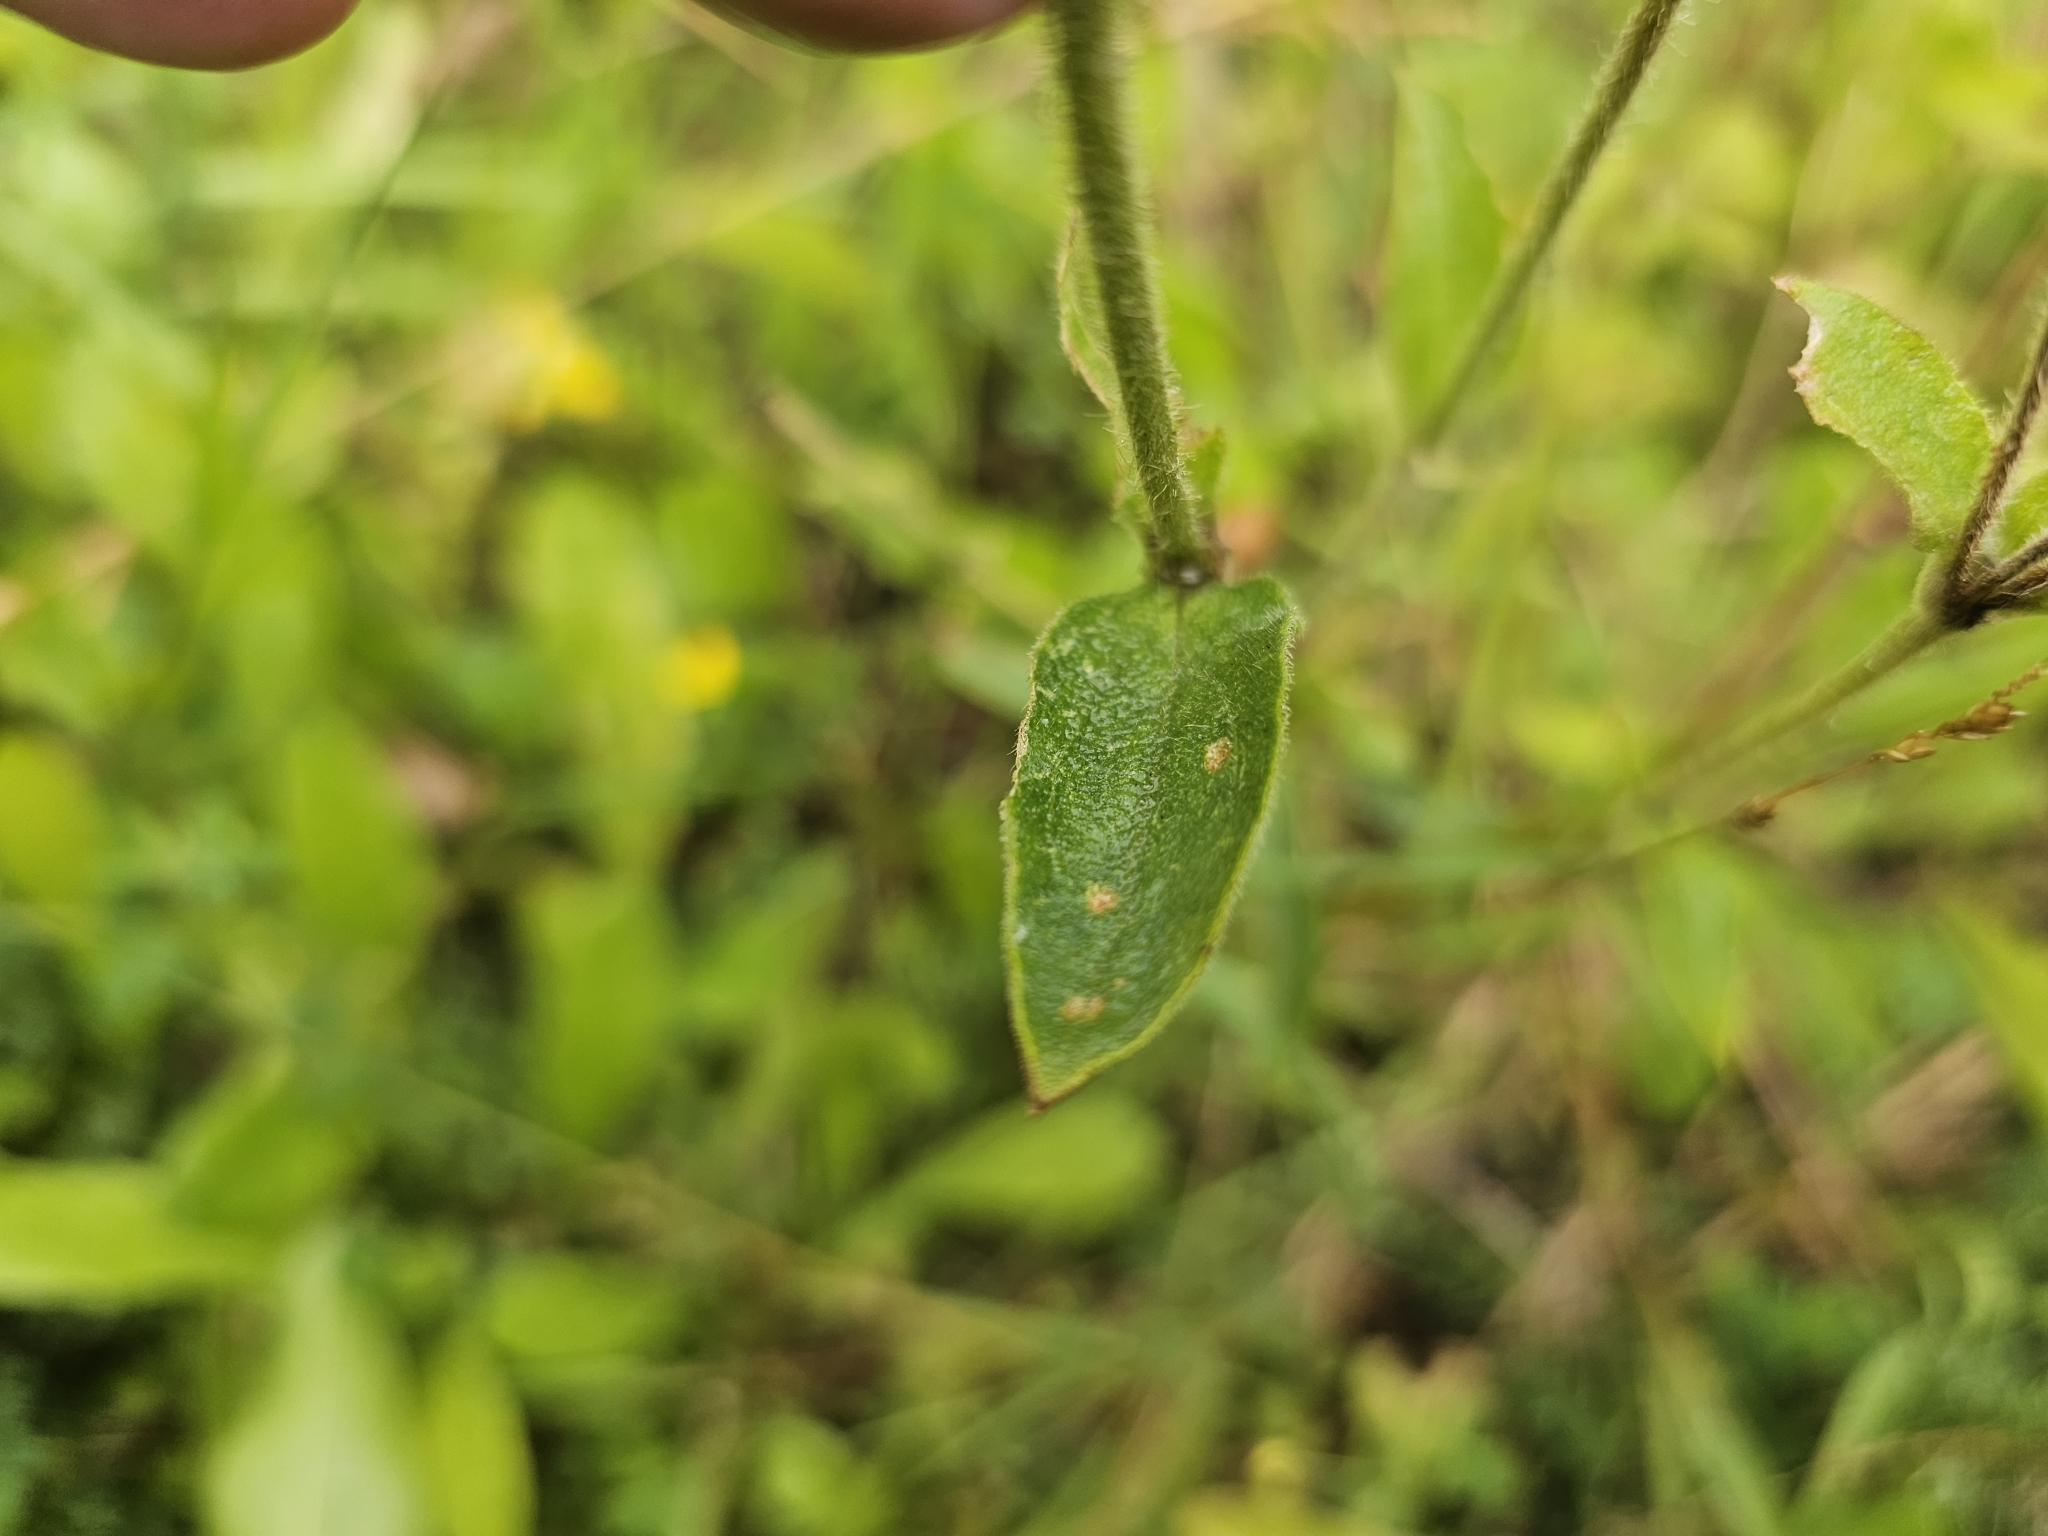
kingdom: Plantae
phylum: Tracheophyta
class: Magnoliopsida
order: Caryophyllales
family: Caryophyllaceae
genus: Silene
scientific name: Silene dioica
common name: Red campion
